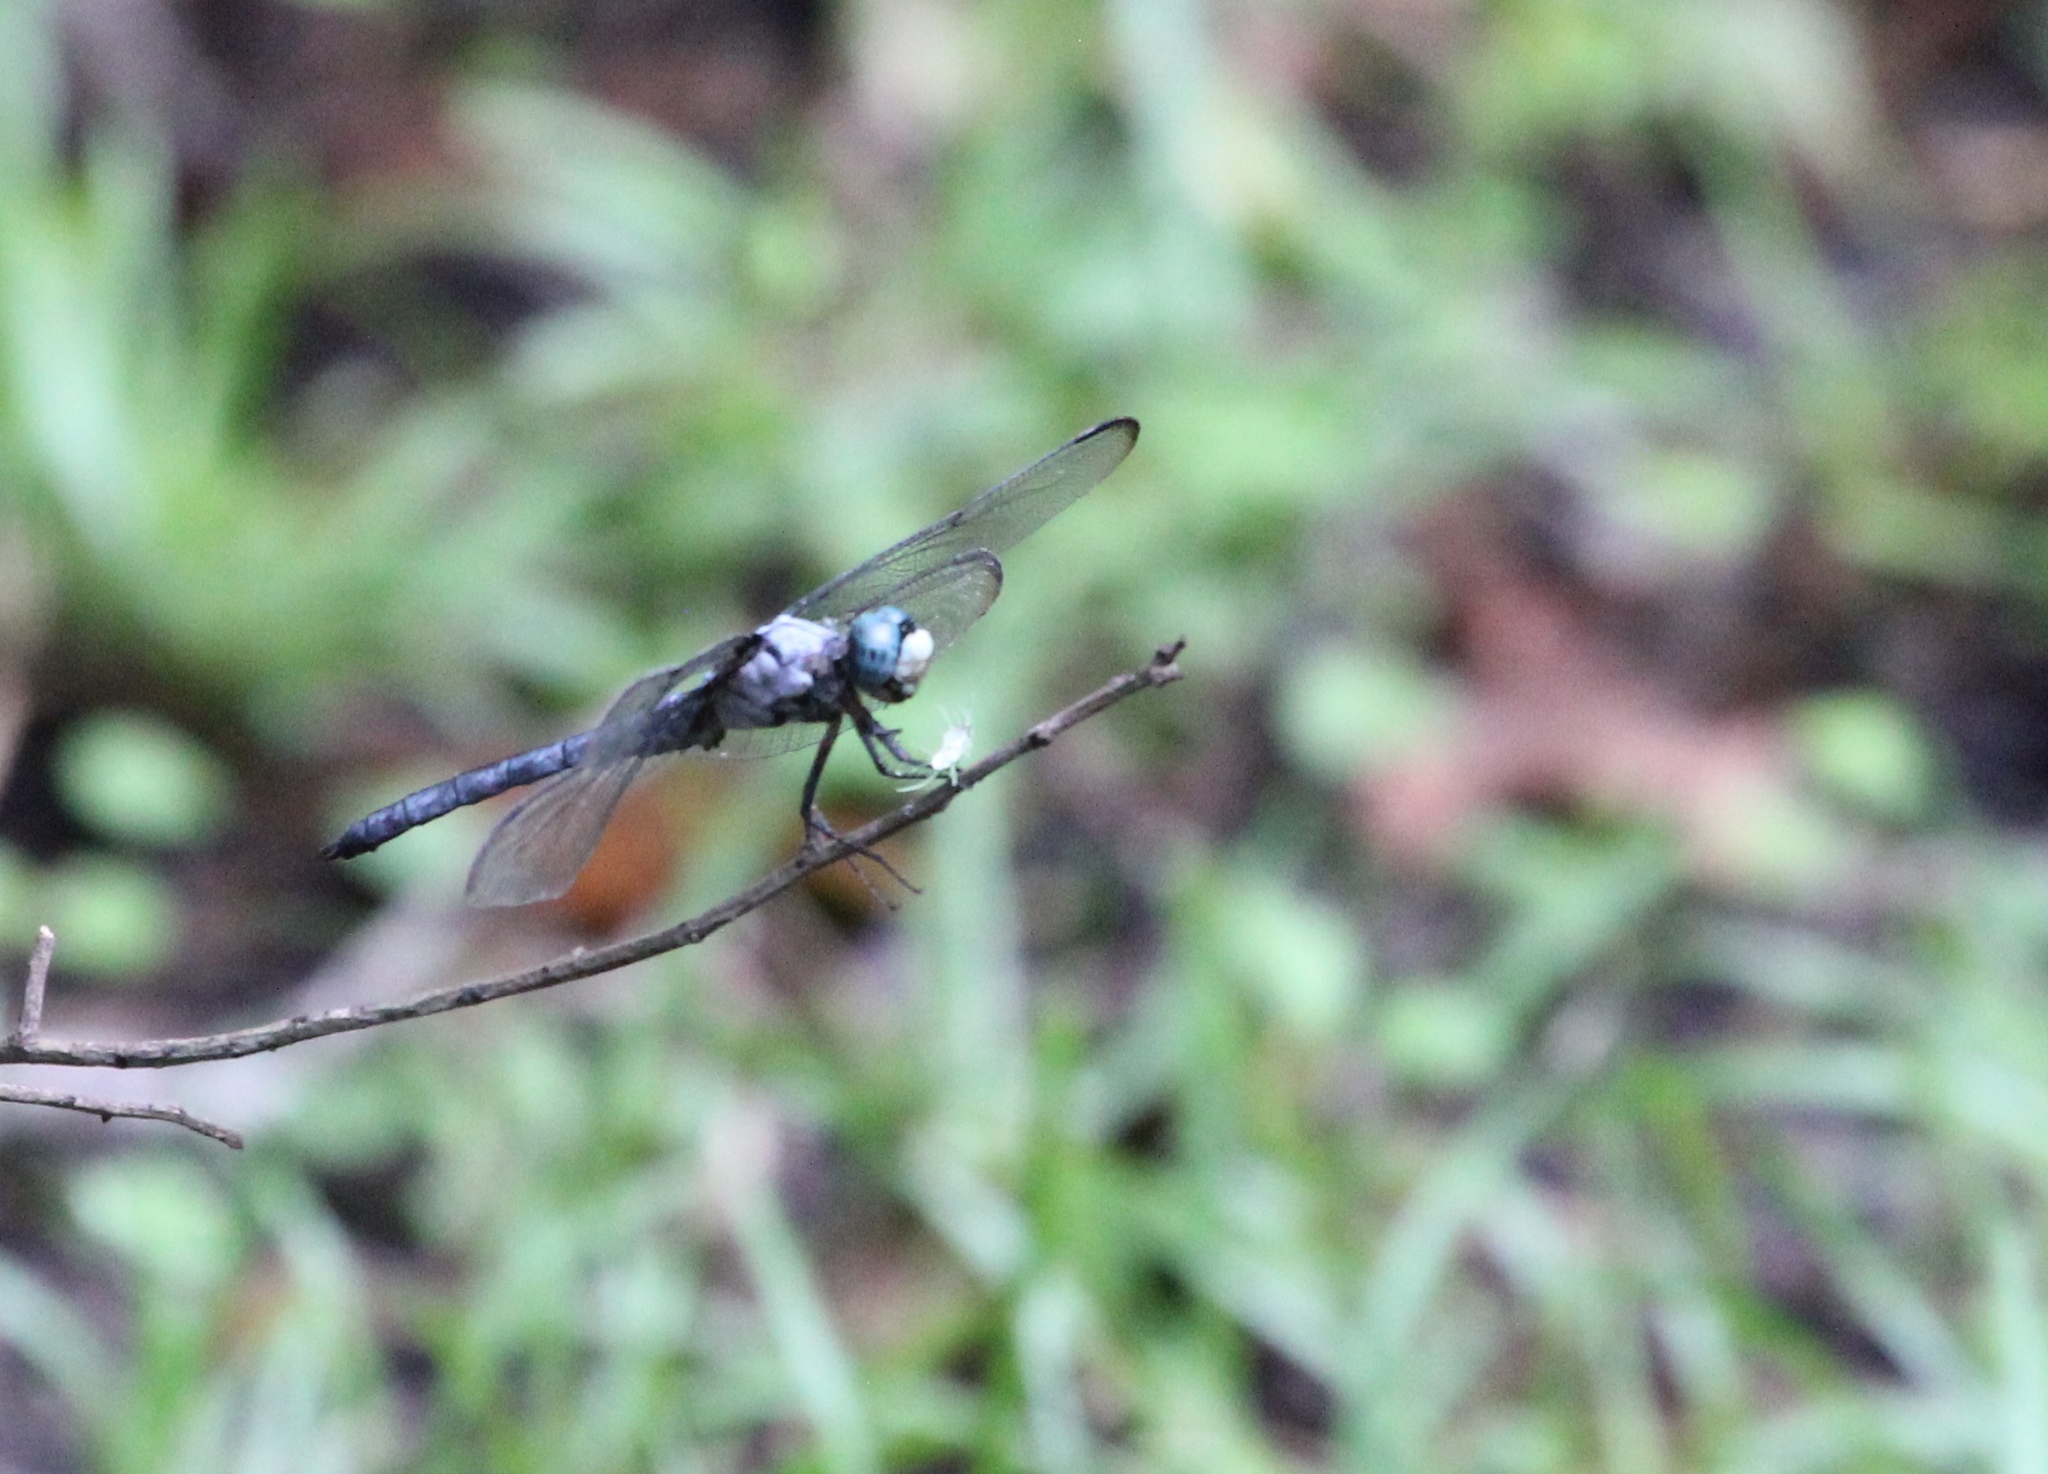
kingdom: Animalia
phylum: Arthropoda
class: Insecta
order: Odonata
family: Libellulidae
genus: Libellula
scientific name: Libellula vibrans
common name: Great blue skimmer
